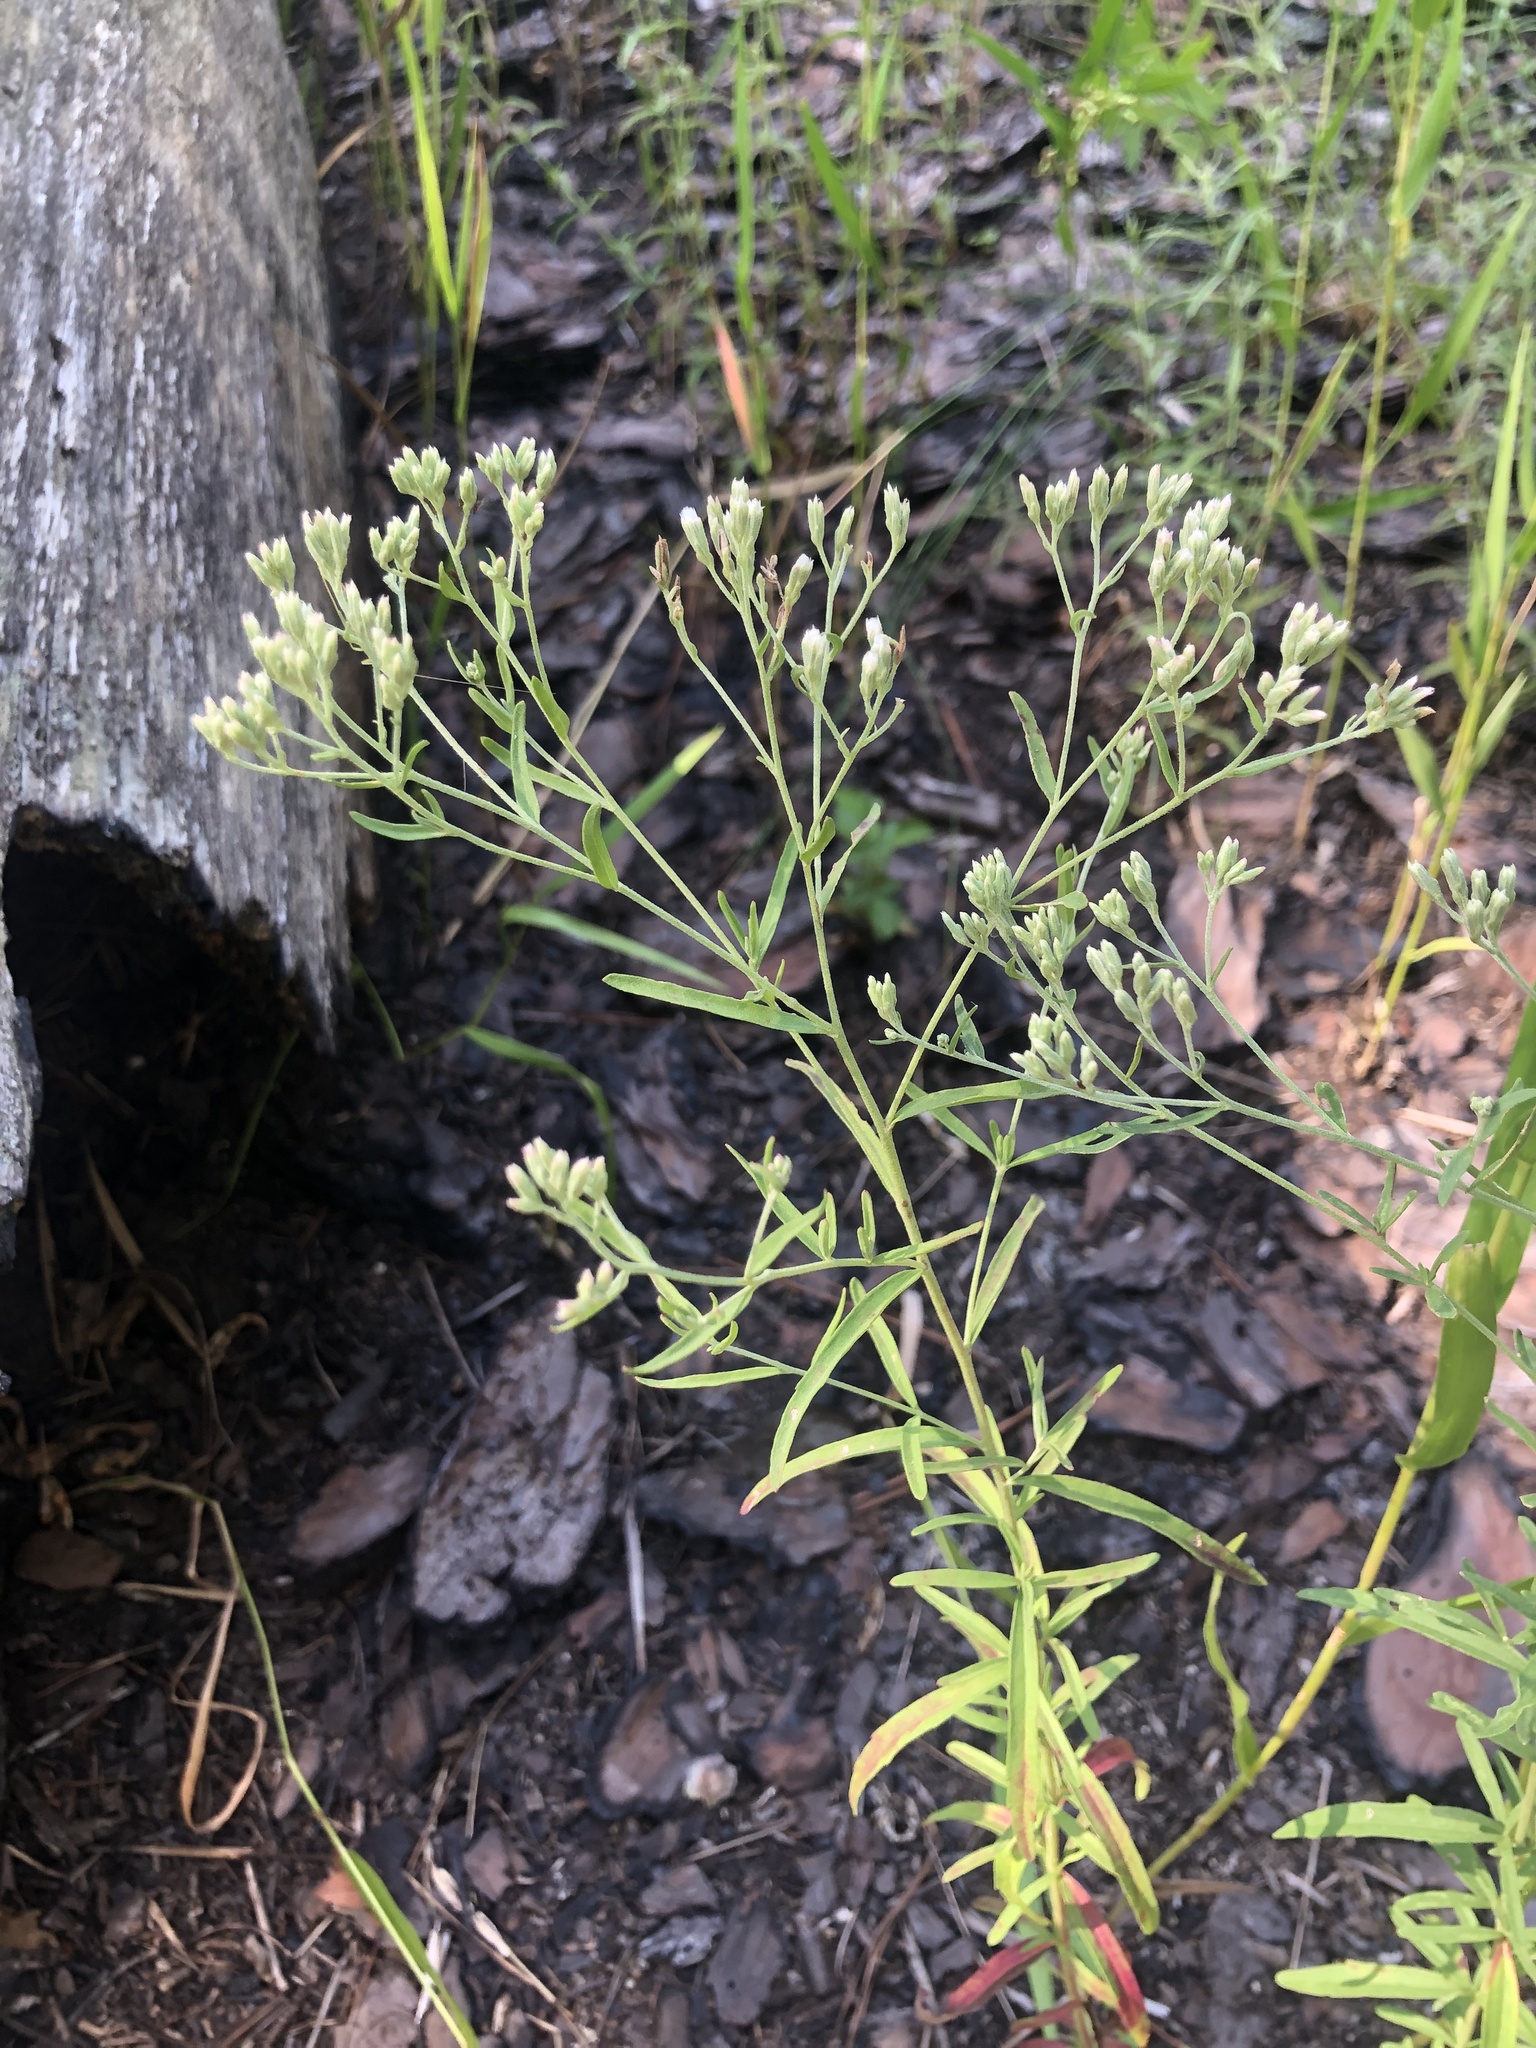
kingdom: Plantae
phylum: Tracheophyta
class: Magnoliopsida
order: Asterales
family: Asteraceae
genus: Eupatorium
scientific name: Eupatorium torreyanum
